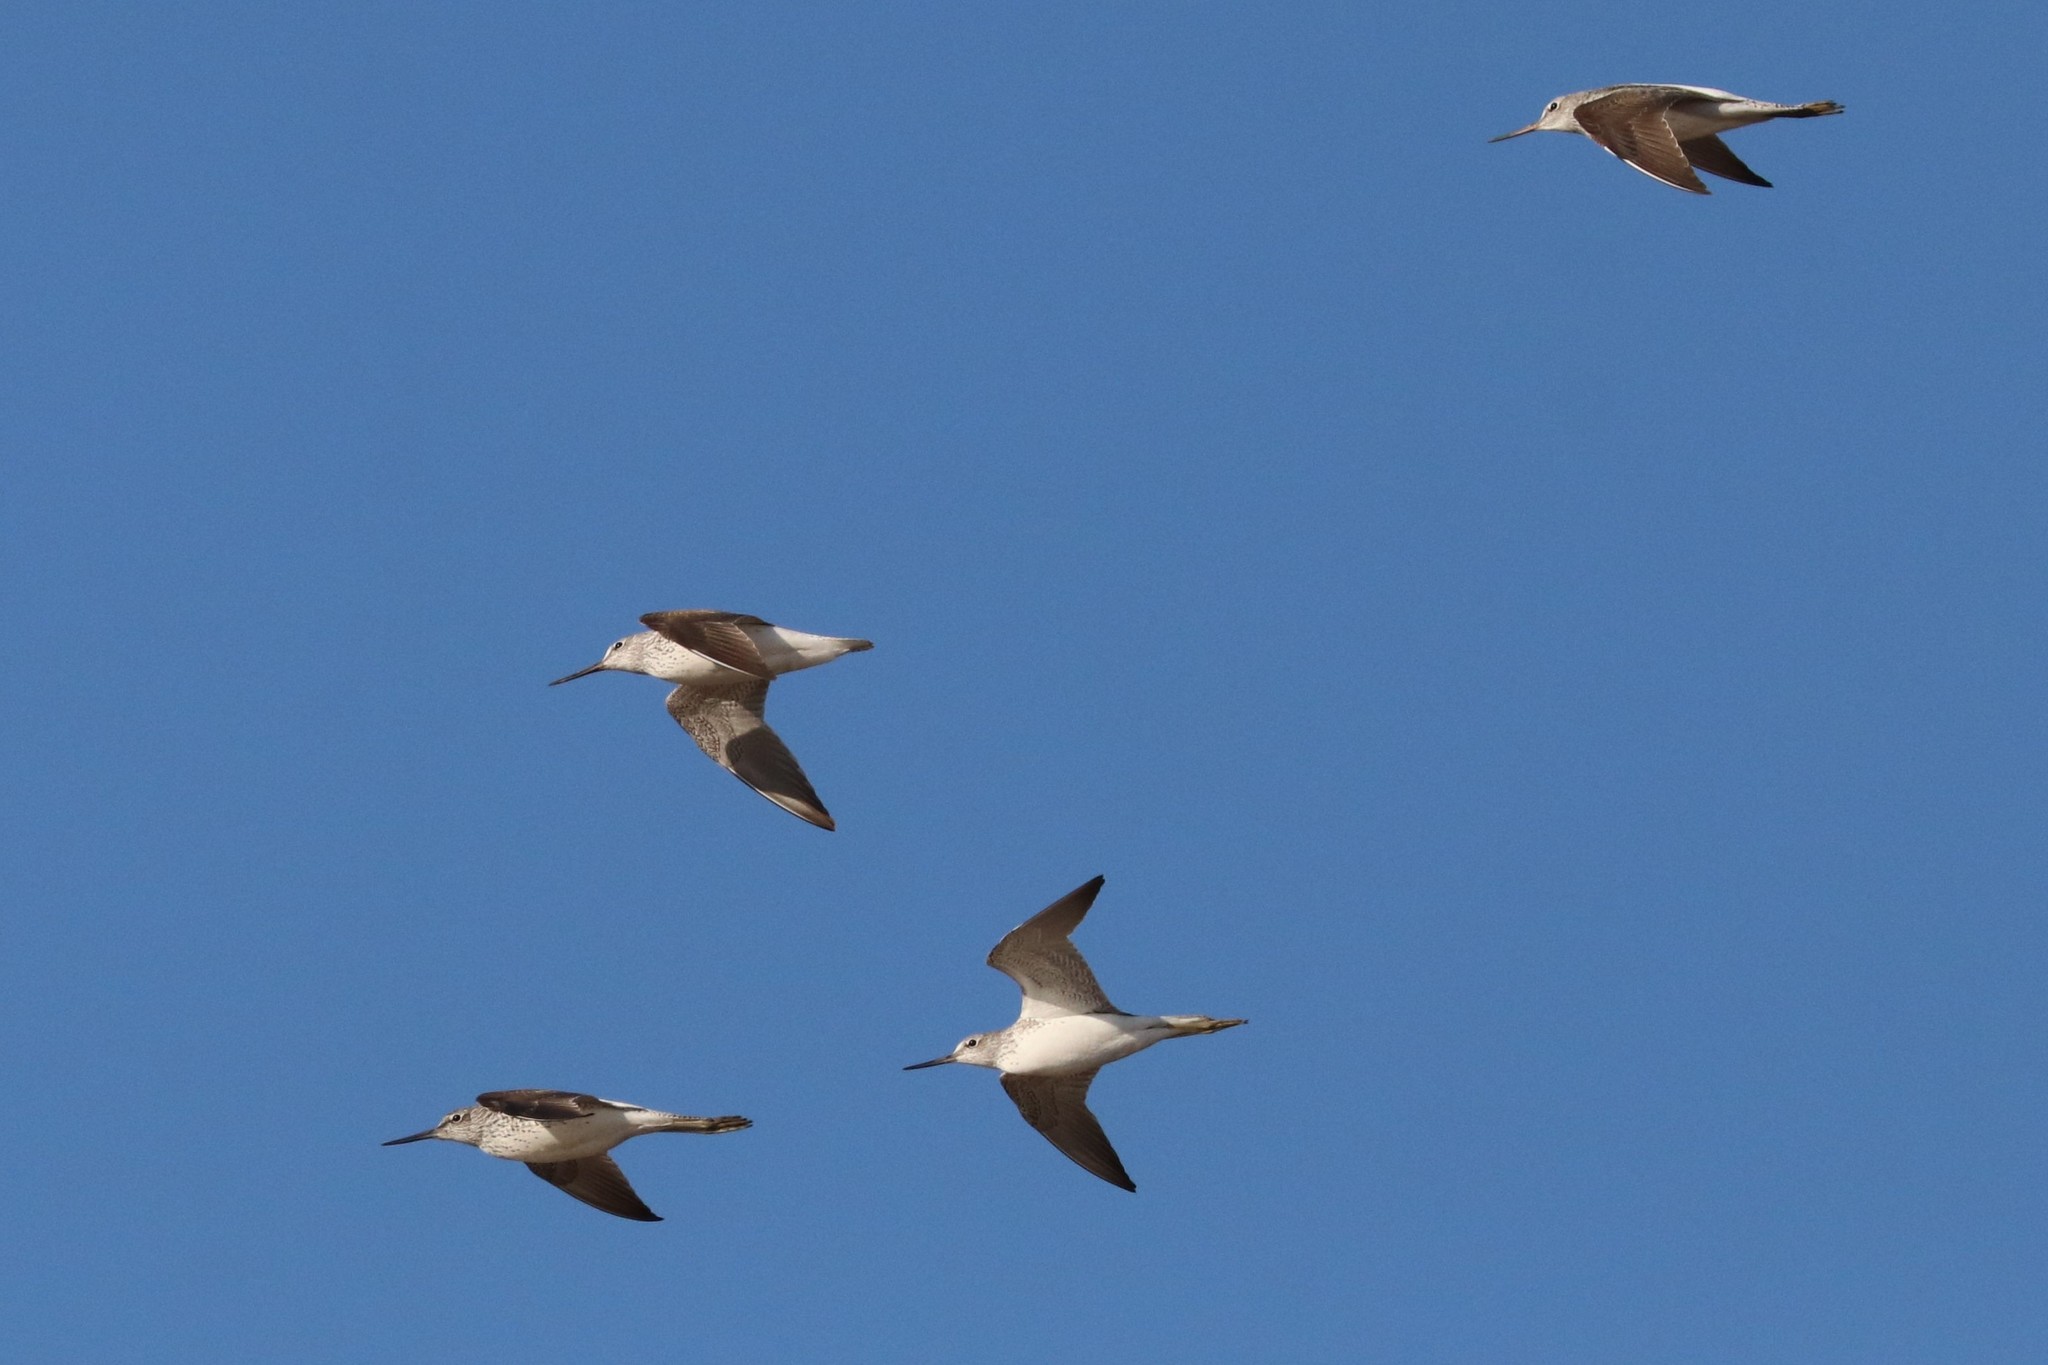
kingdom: Animalia
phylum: Chordata
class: Aves
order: Charadriiformes
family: Scolopacidae
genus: Tringa
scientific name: Tringa nebularia
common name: Common greenshank
